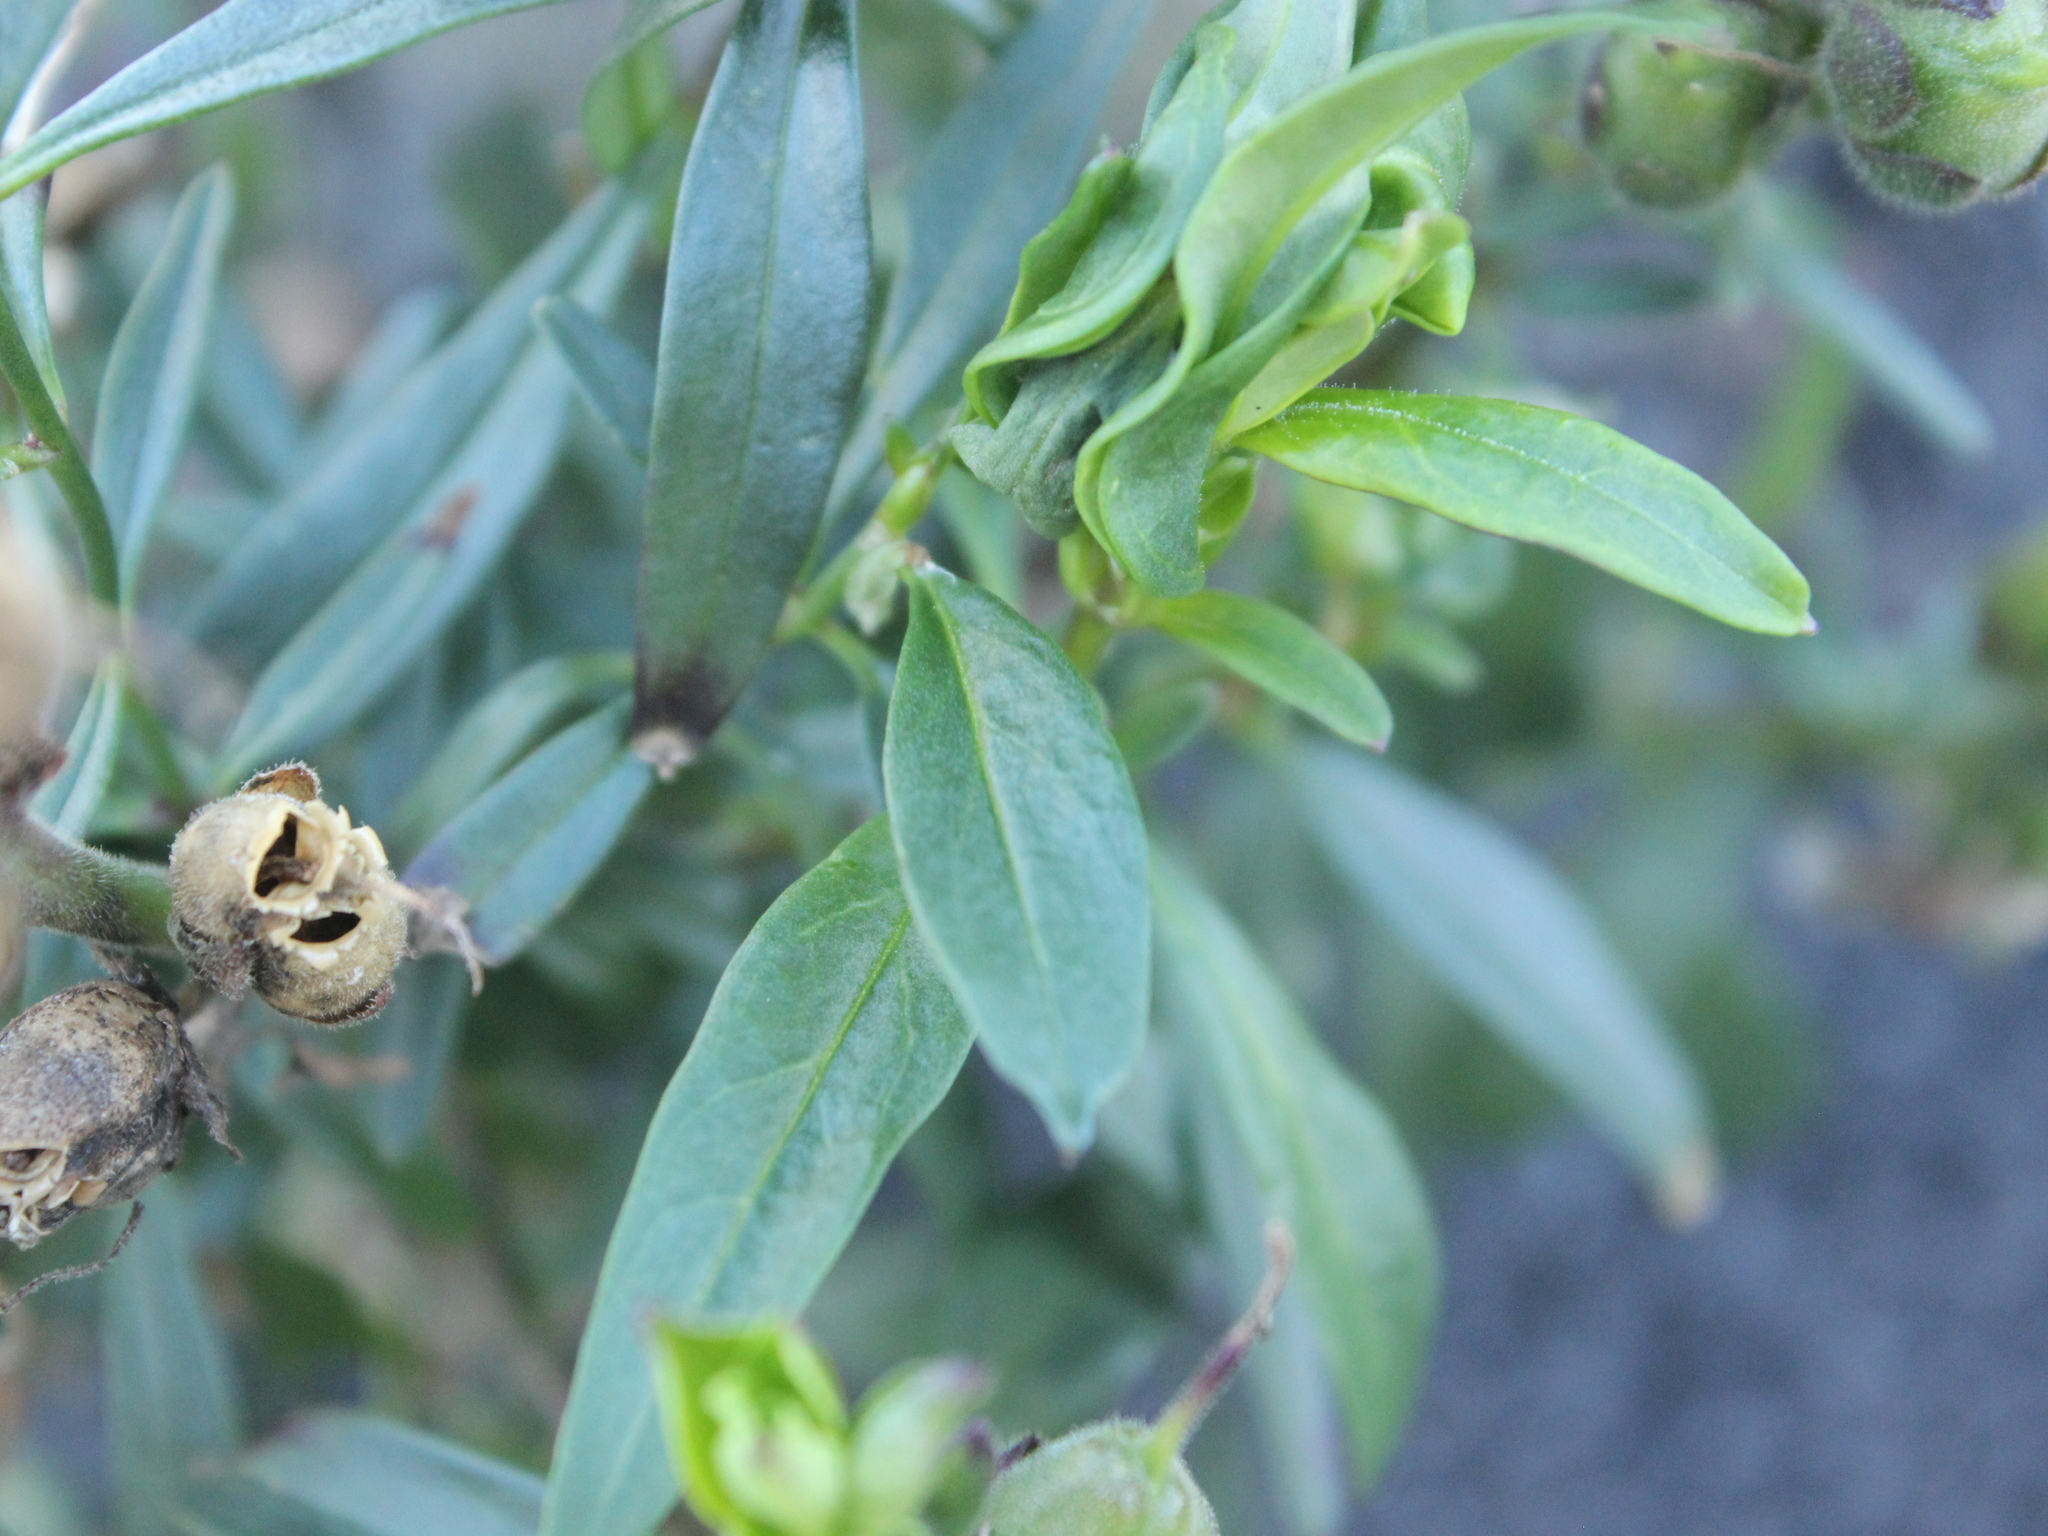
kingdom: Plantae
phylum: Tracheophyta
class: Magnoliopsida
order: Lamiales
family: Plantaginaceae
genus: Antirrhinum
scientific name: Antirrhinum majus
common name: Snapdragon
